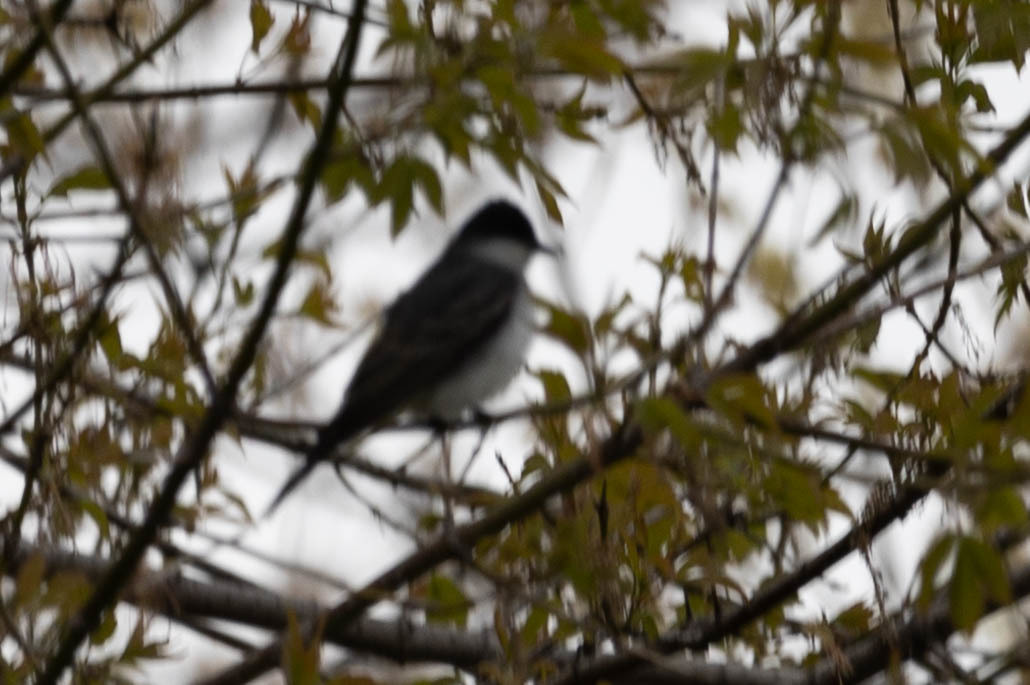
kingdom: Animalia
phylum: Chordata
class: Aves
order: Passeriformes
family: Tyrannidae
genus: Tyrannus
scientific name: Tyrannus tyrannus
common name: Eastern kingbird
